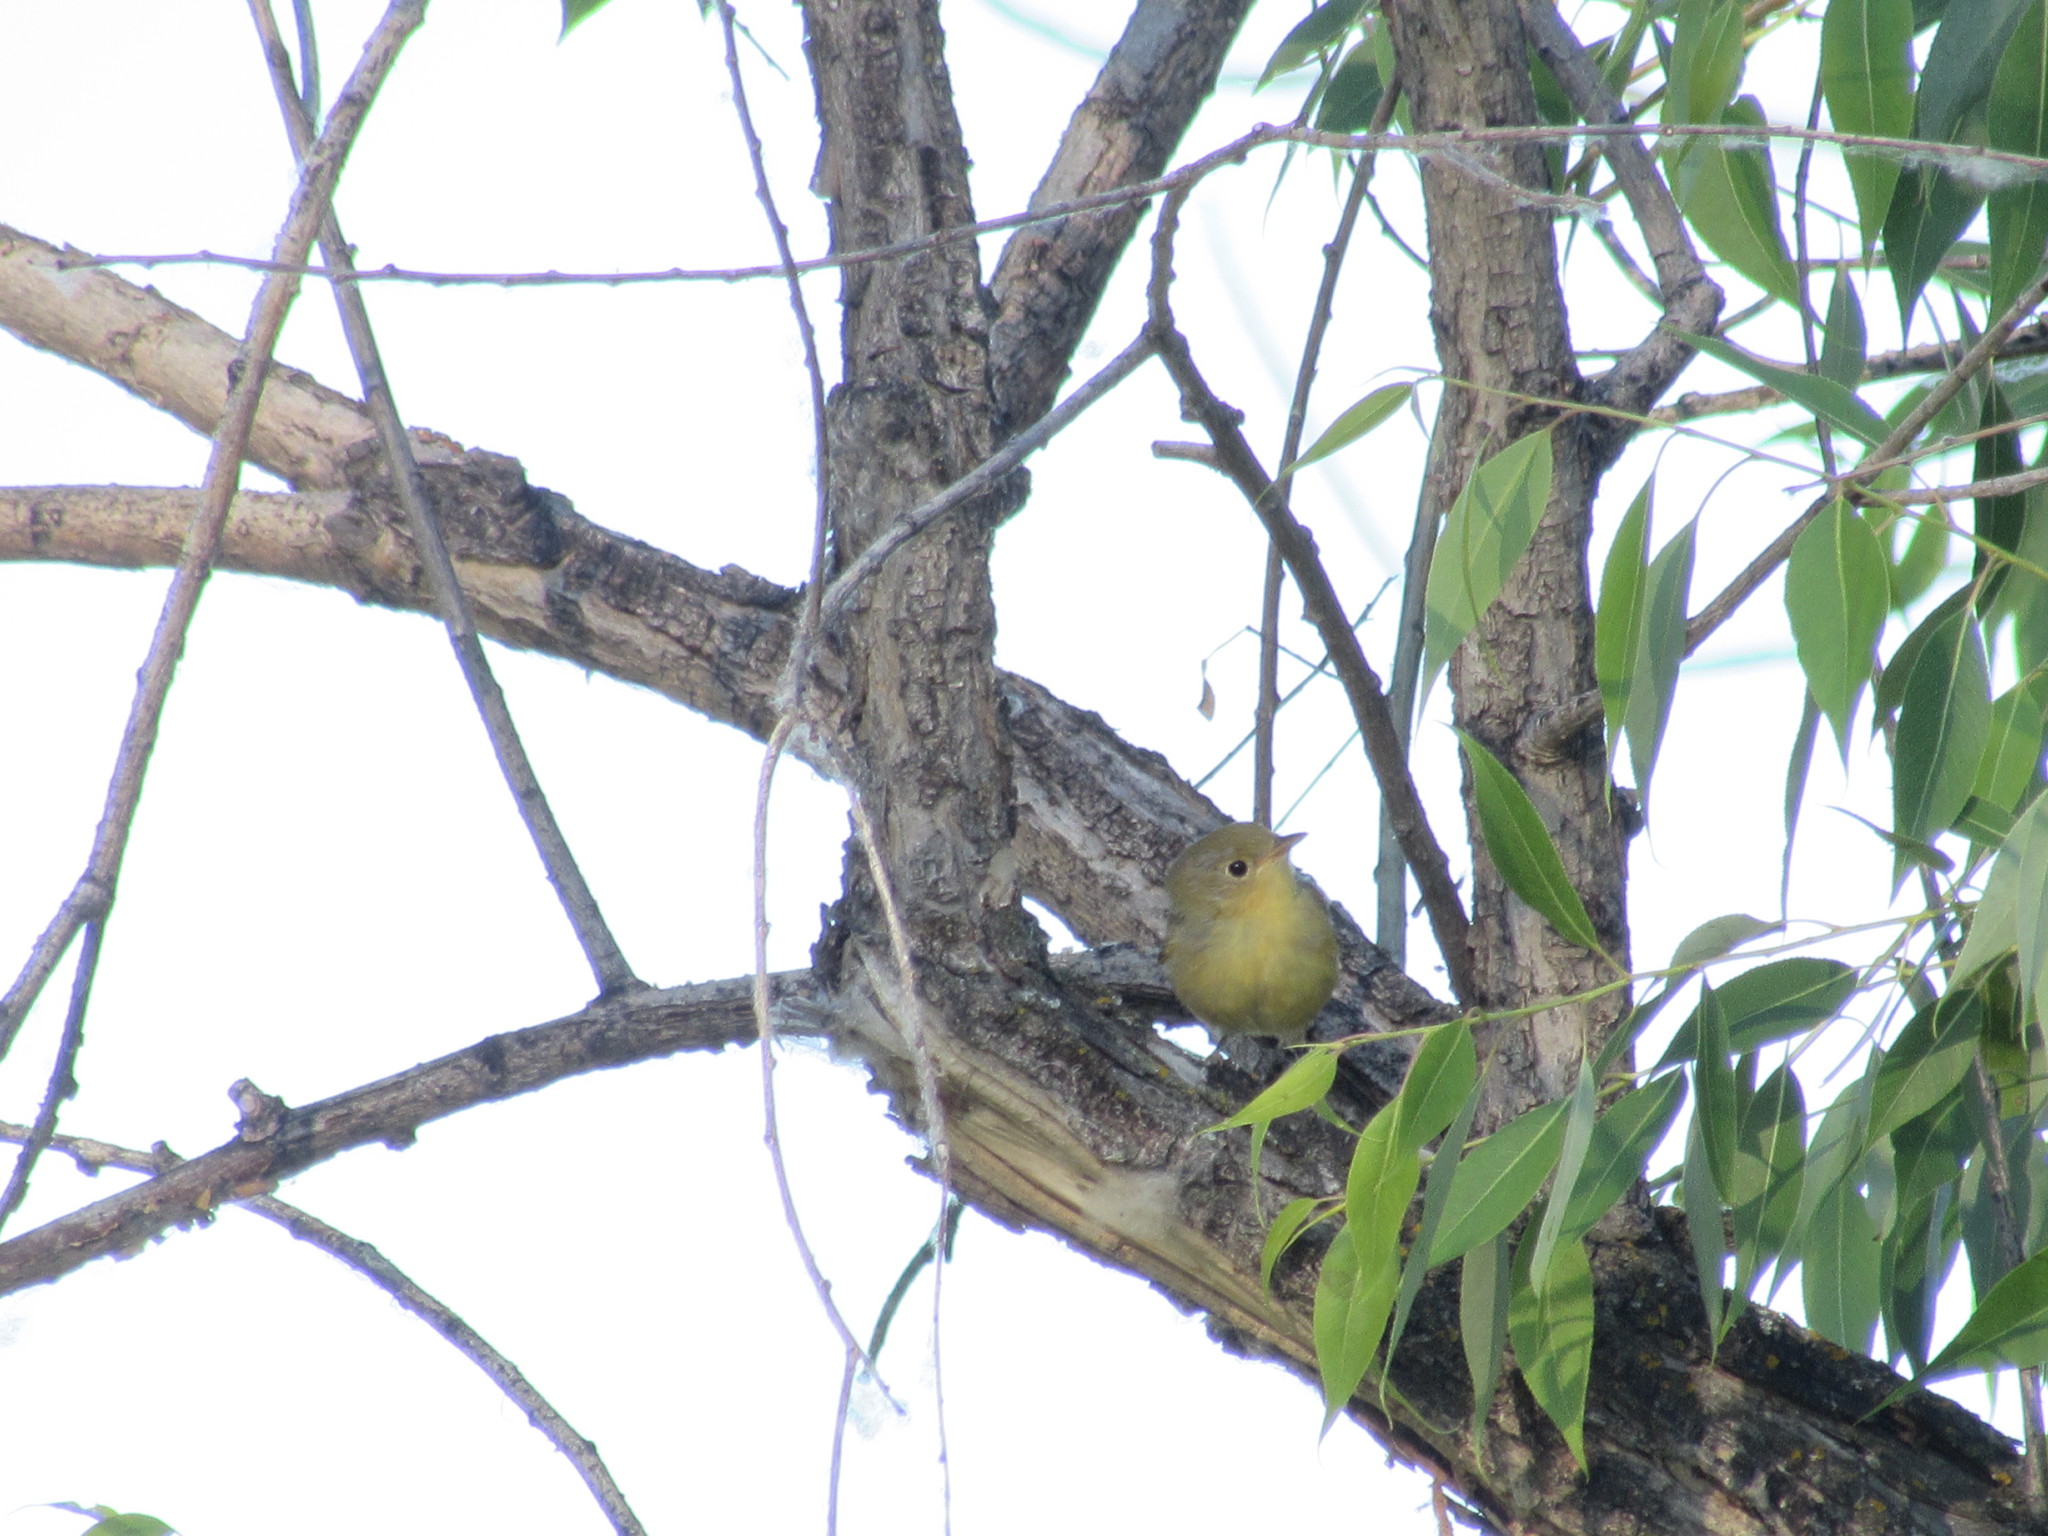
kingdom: Animalia
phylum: Chordata
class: Aves
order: Passeriformes
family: Parulidae
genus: Setophaga
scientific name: Setophaga petechia
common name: Yellow warbler
